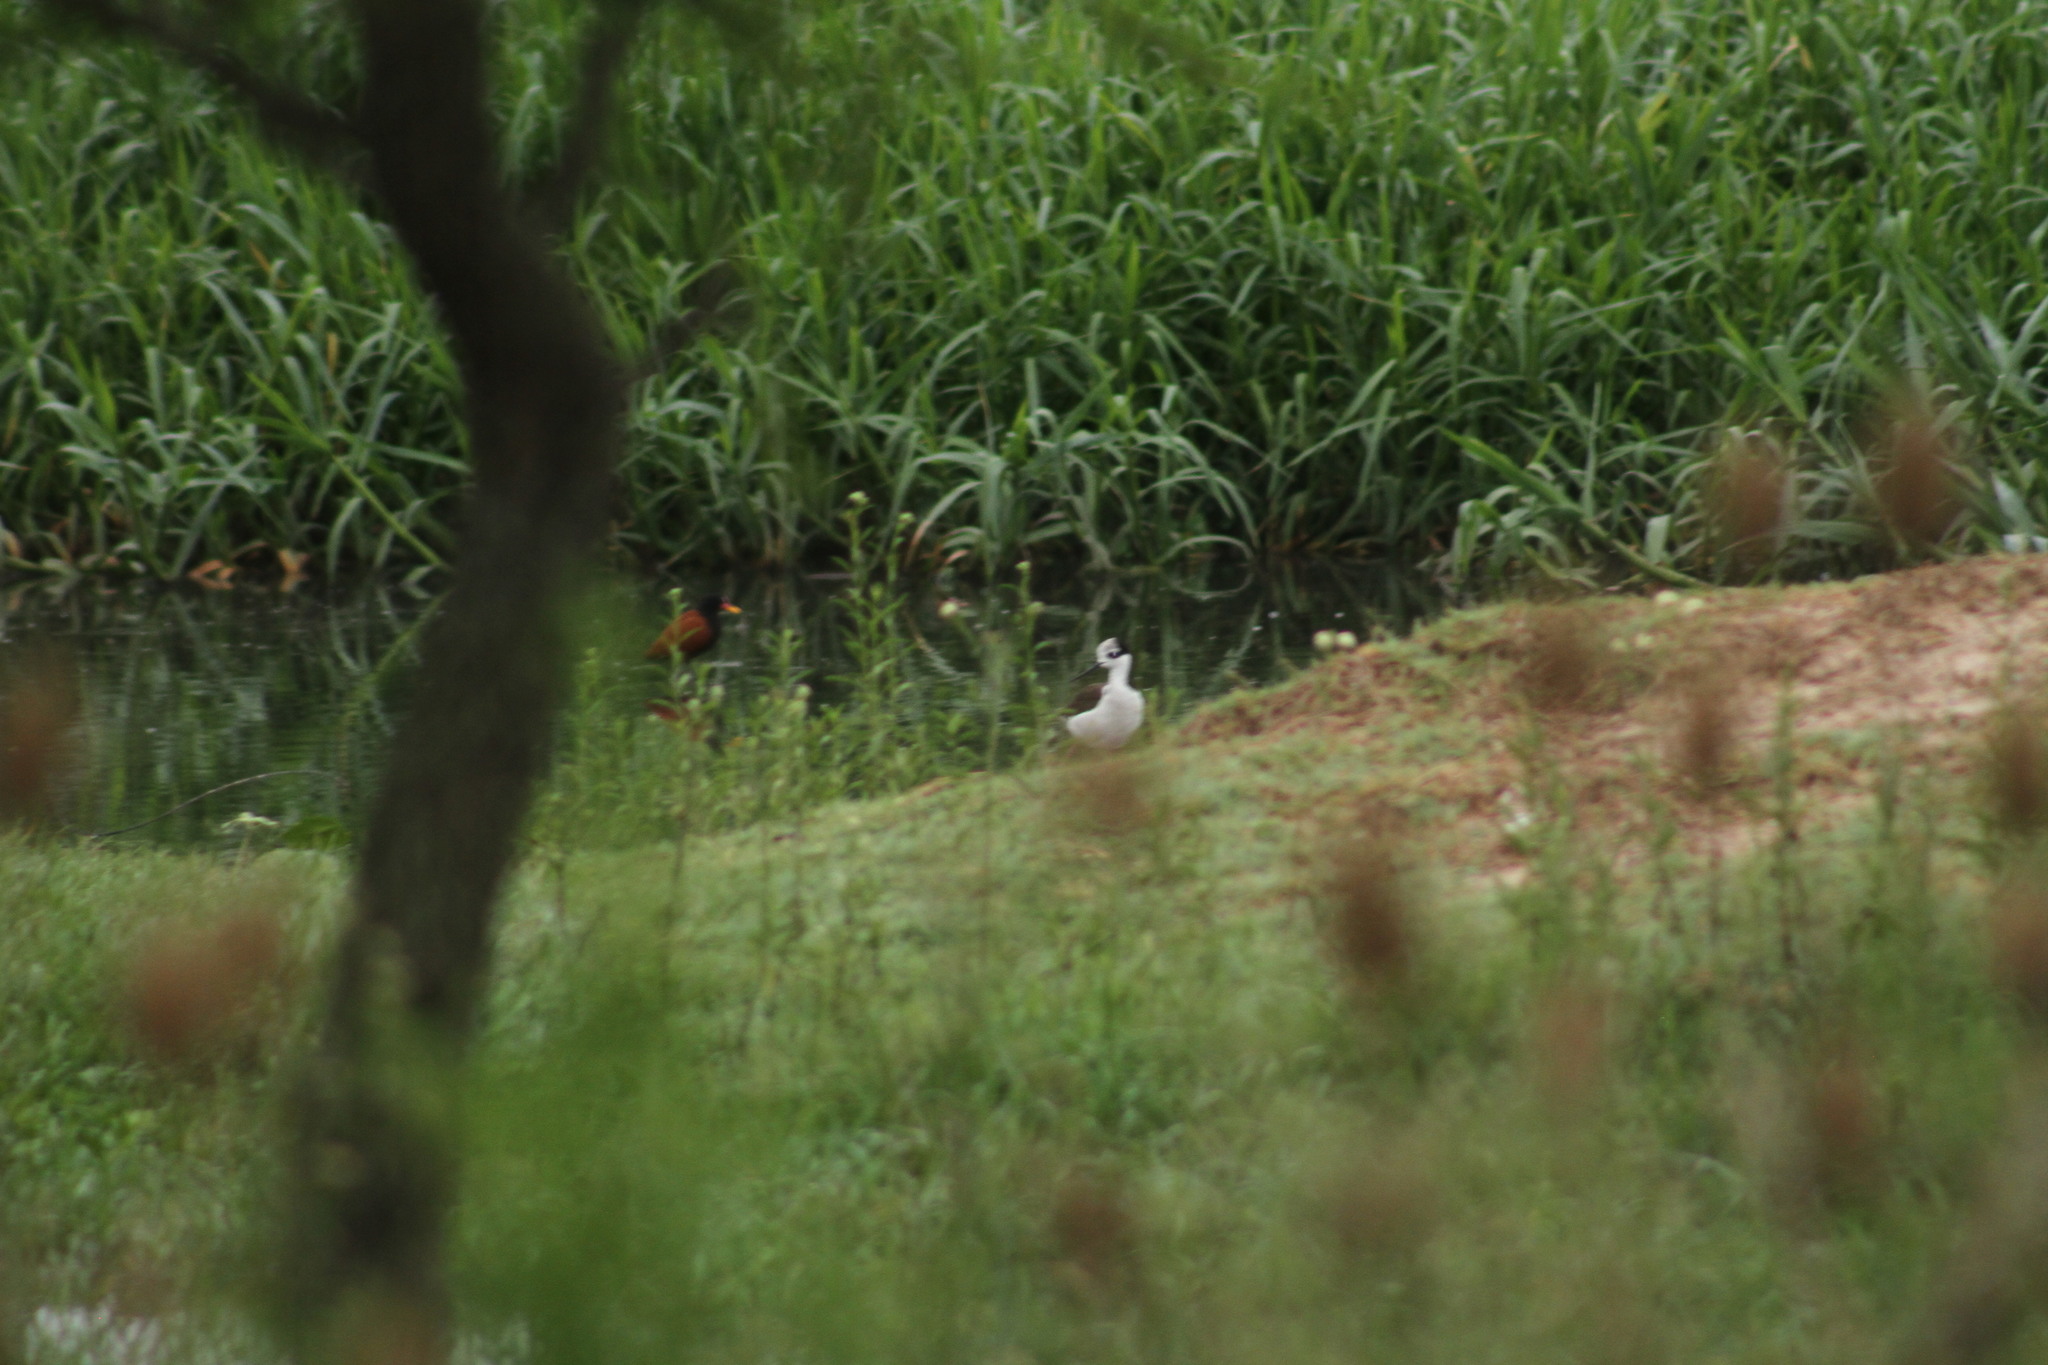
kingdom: Animalia
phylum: Chordata
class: Aves
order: Charadriiformes
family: Recurvirostridae
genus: Himantopus
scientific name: Himantopus mexicanus
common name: Black-necked stilt
